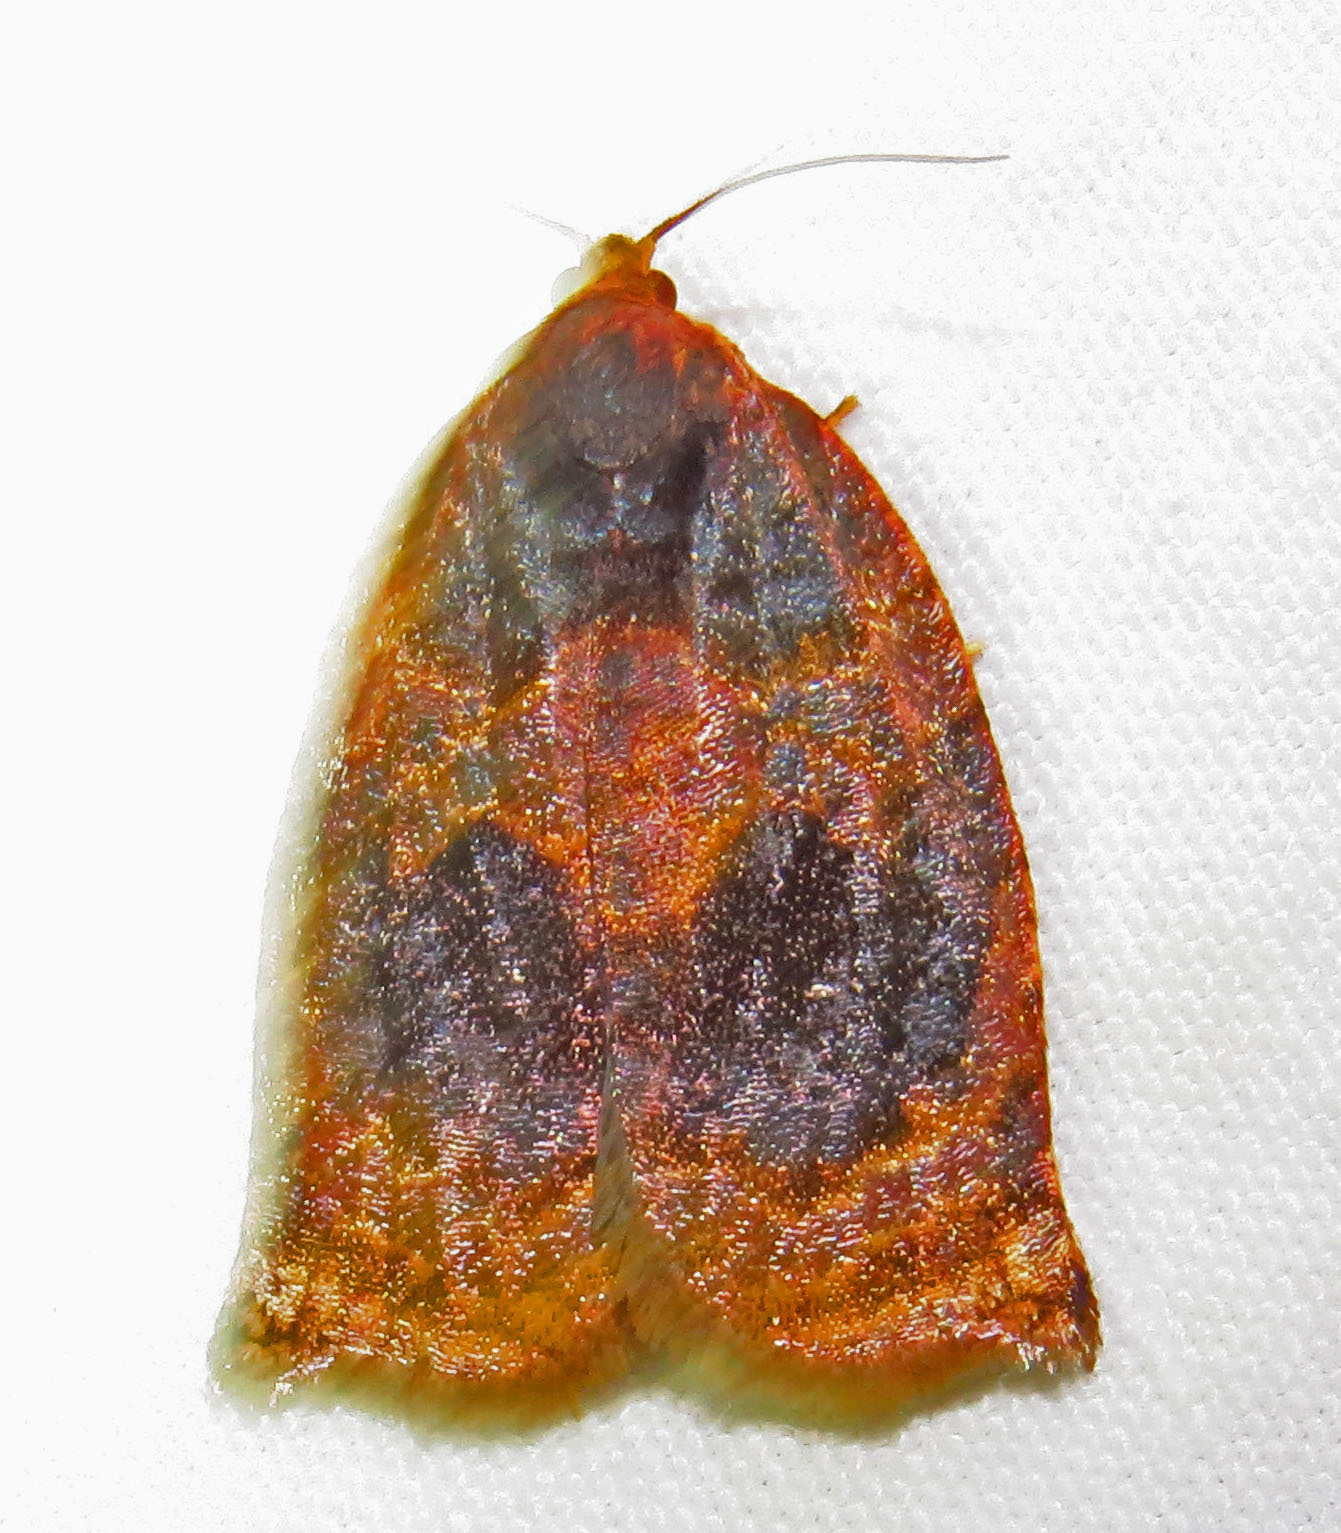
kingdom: Animalia
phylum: Arthropoda
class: Insecta
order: Lepidoptera
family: Tortricidae
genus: Archips
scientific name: Archips infumatana
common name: Smoked leafroller moth
